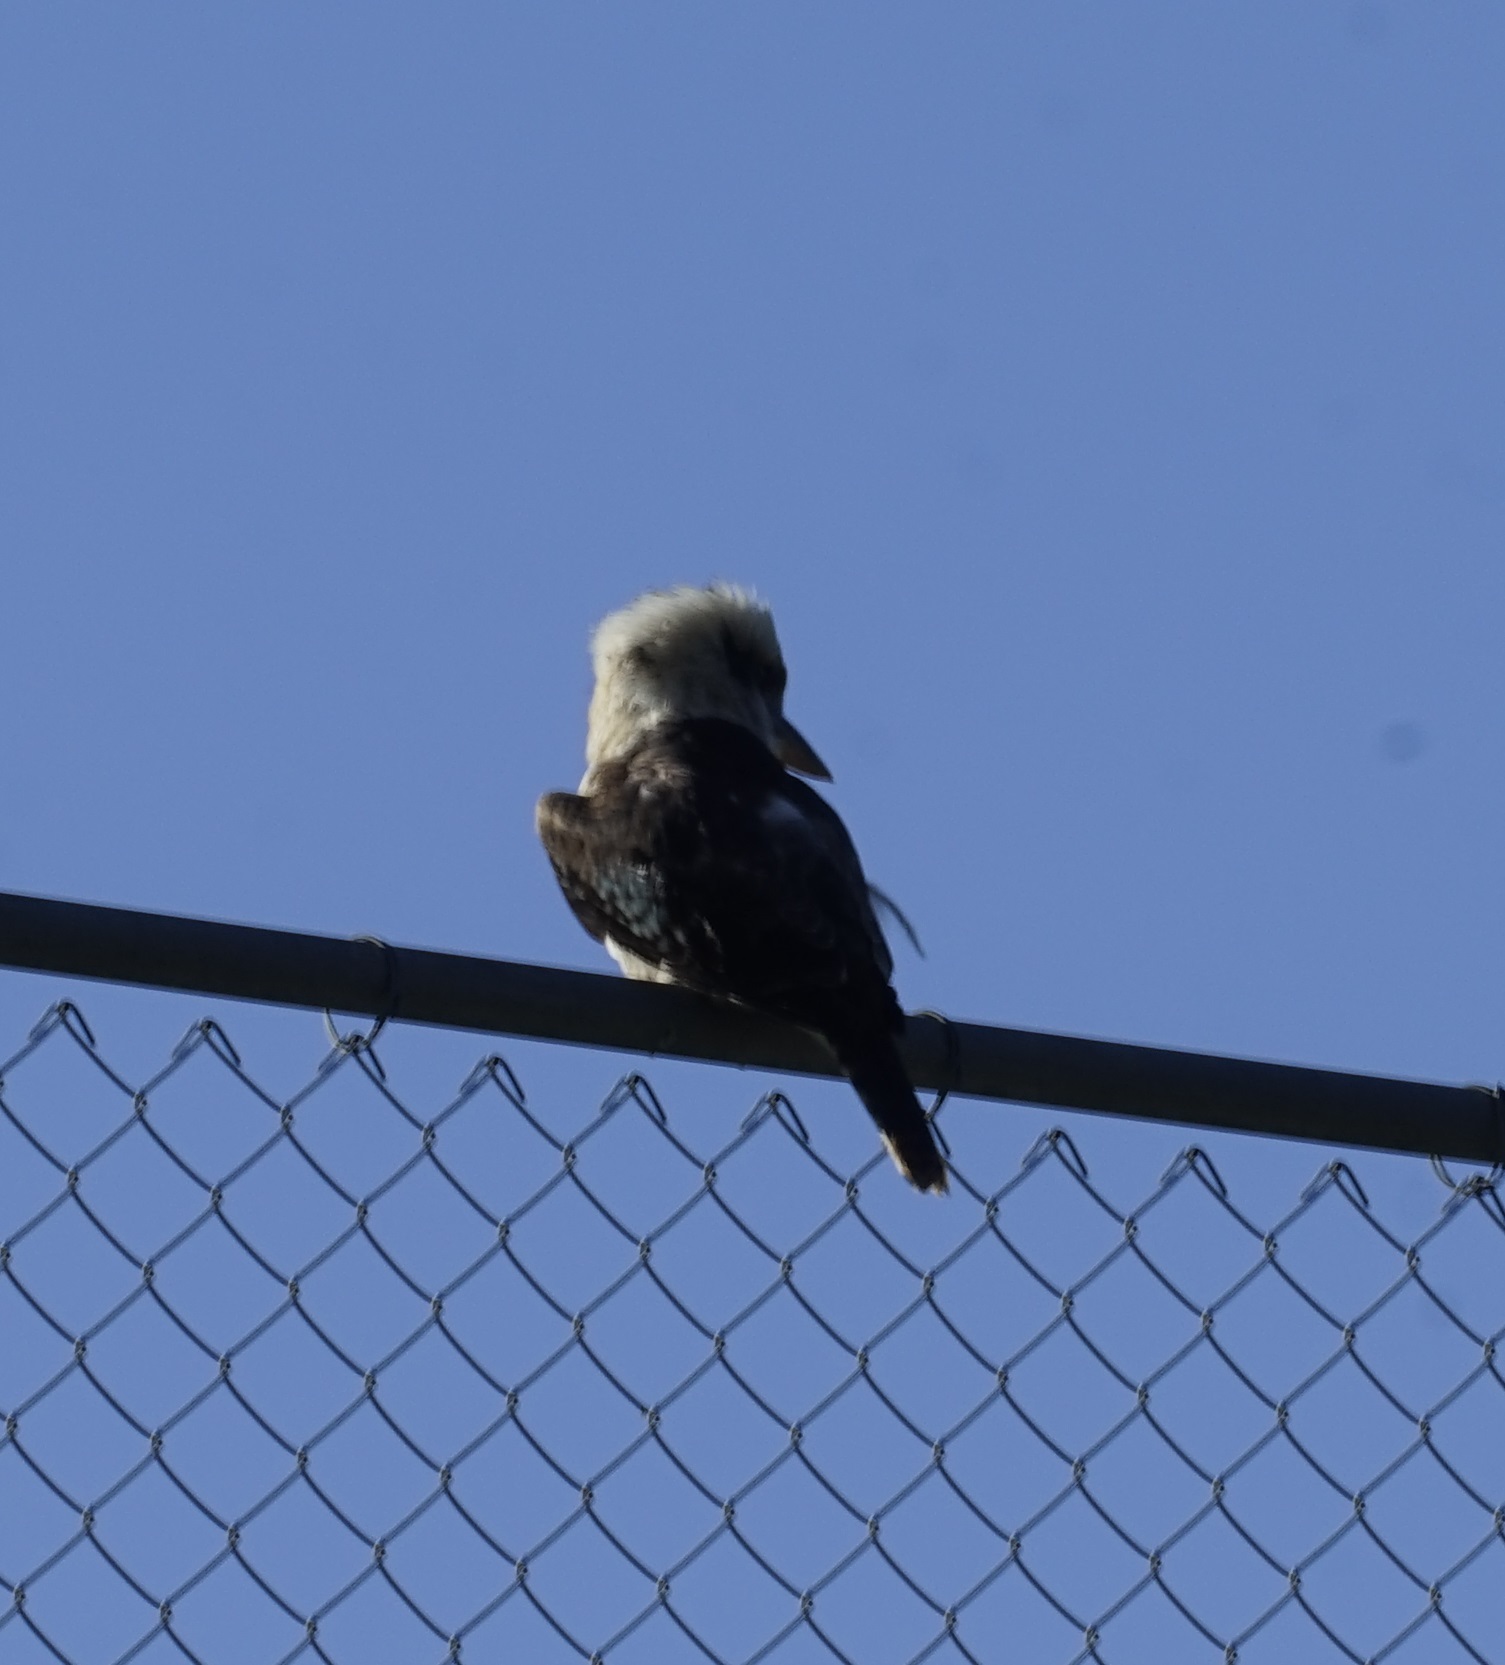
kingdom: Animalia
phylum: Chordata
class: Aves
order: Coraciiformes
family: Alcedinidae
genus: Dacelo
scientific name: Dacelo novaeguineae
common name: Laughing kookaburra
